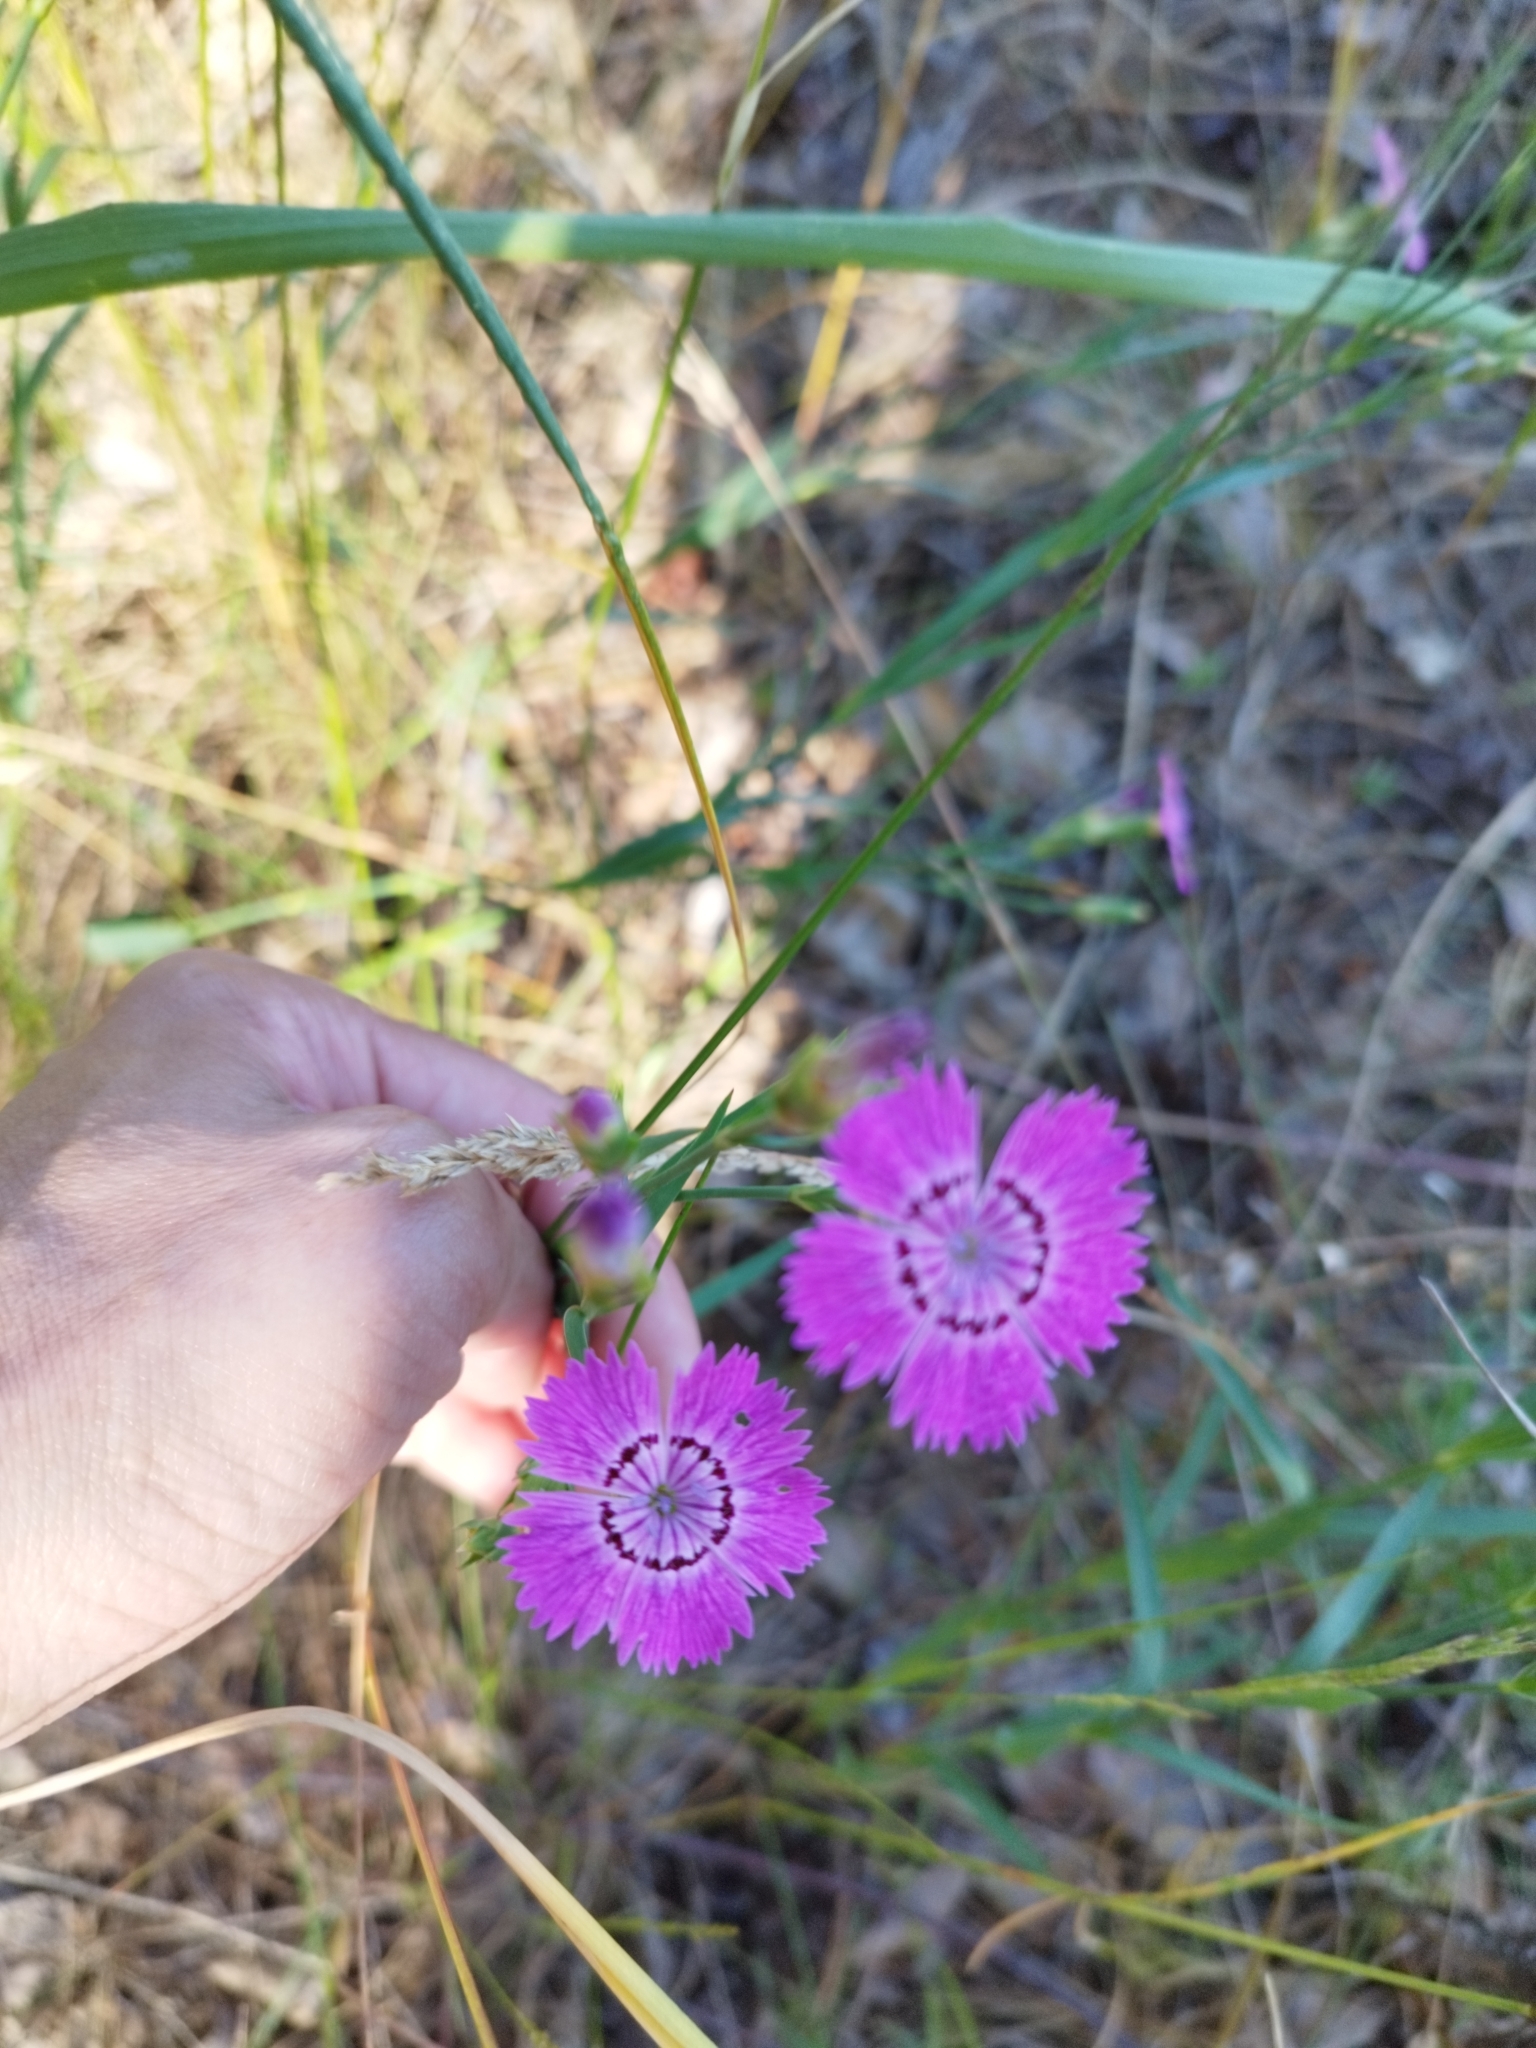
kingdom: Plantae
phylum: Tracheophyta
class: Magnoliopsida
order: Caryophyllales
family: Caryophyllaceae
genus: Dianthus
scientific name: Dianthus chinensis
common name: Rainbow pink
